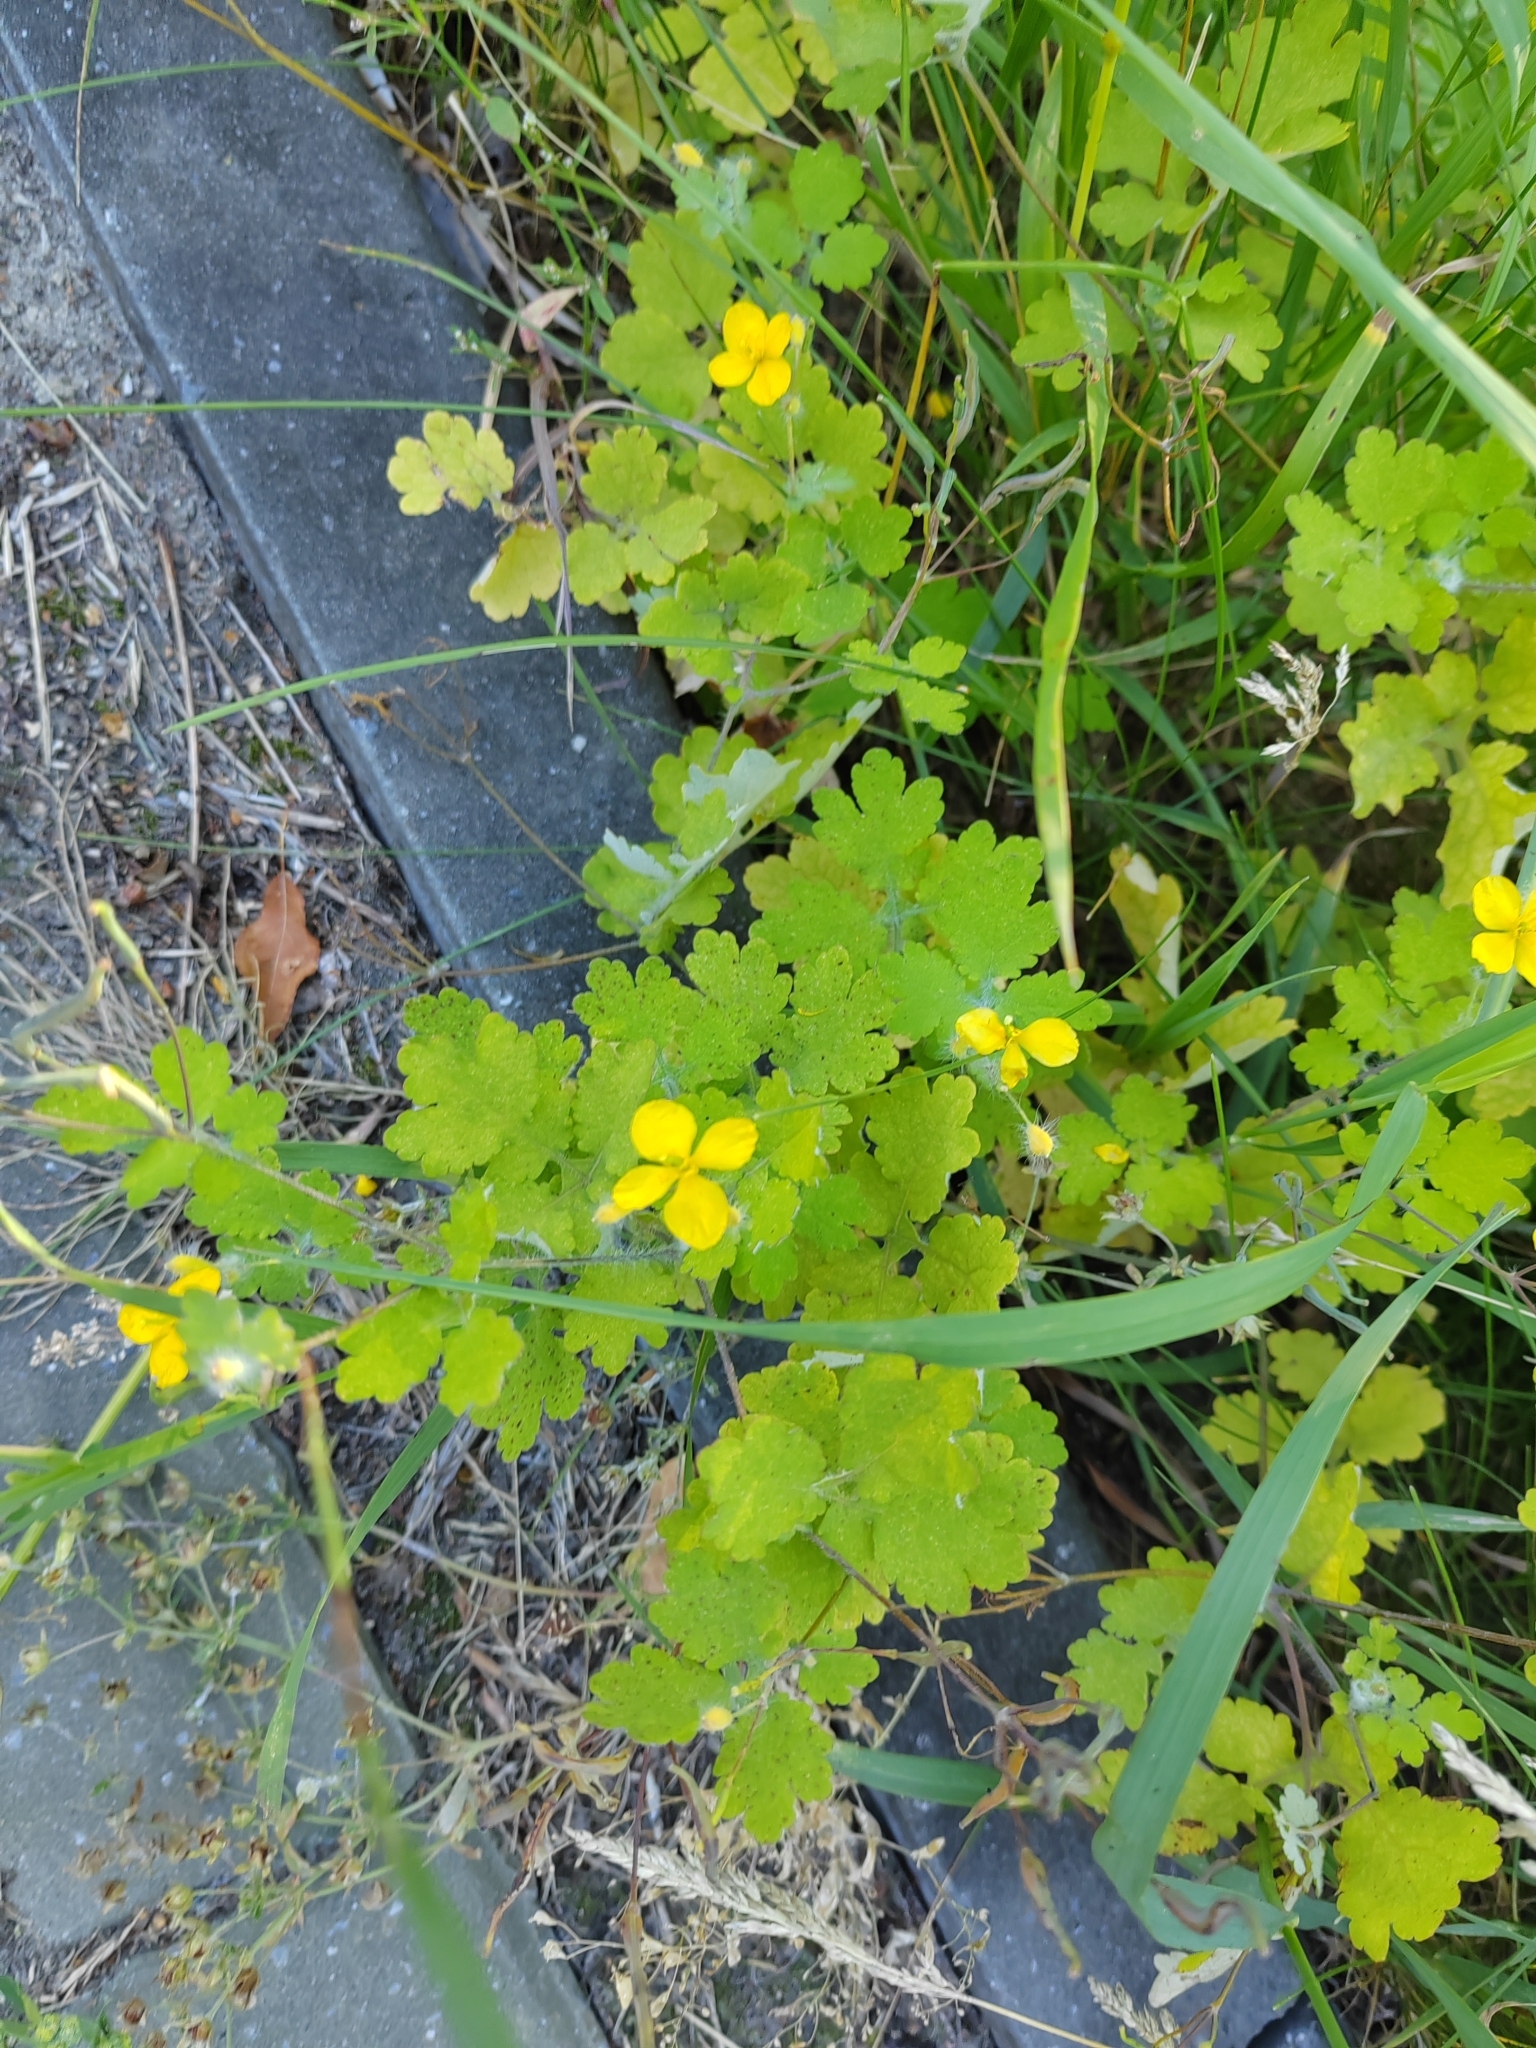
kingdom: Plantae
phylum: Tracheophyta
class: Magnoliopsida
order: Ranunculales
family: Papaveraceae
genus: Chelidonium
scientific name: Chelidonium majus
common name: Greater celandine
